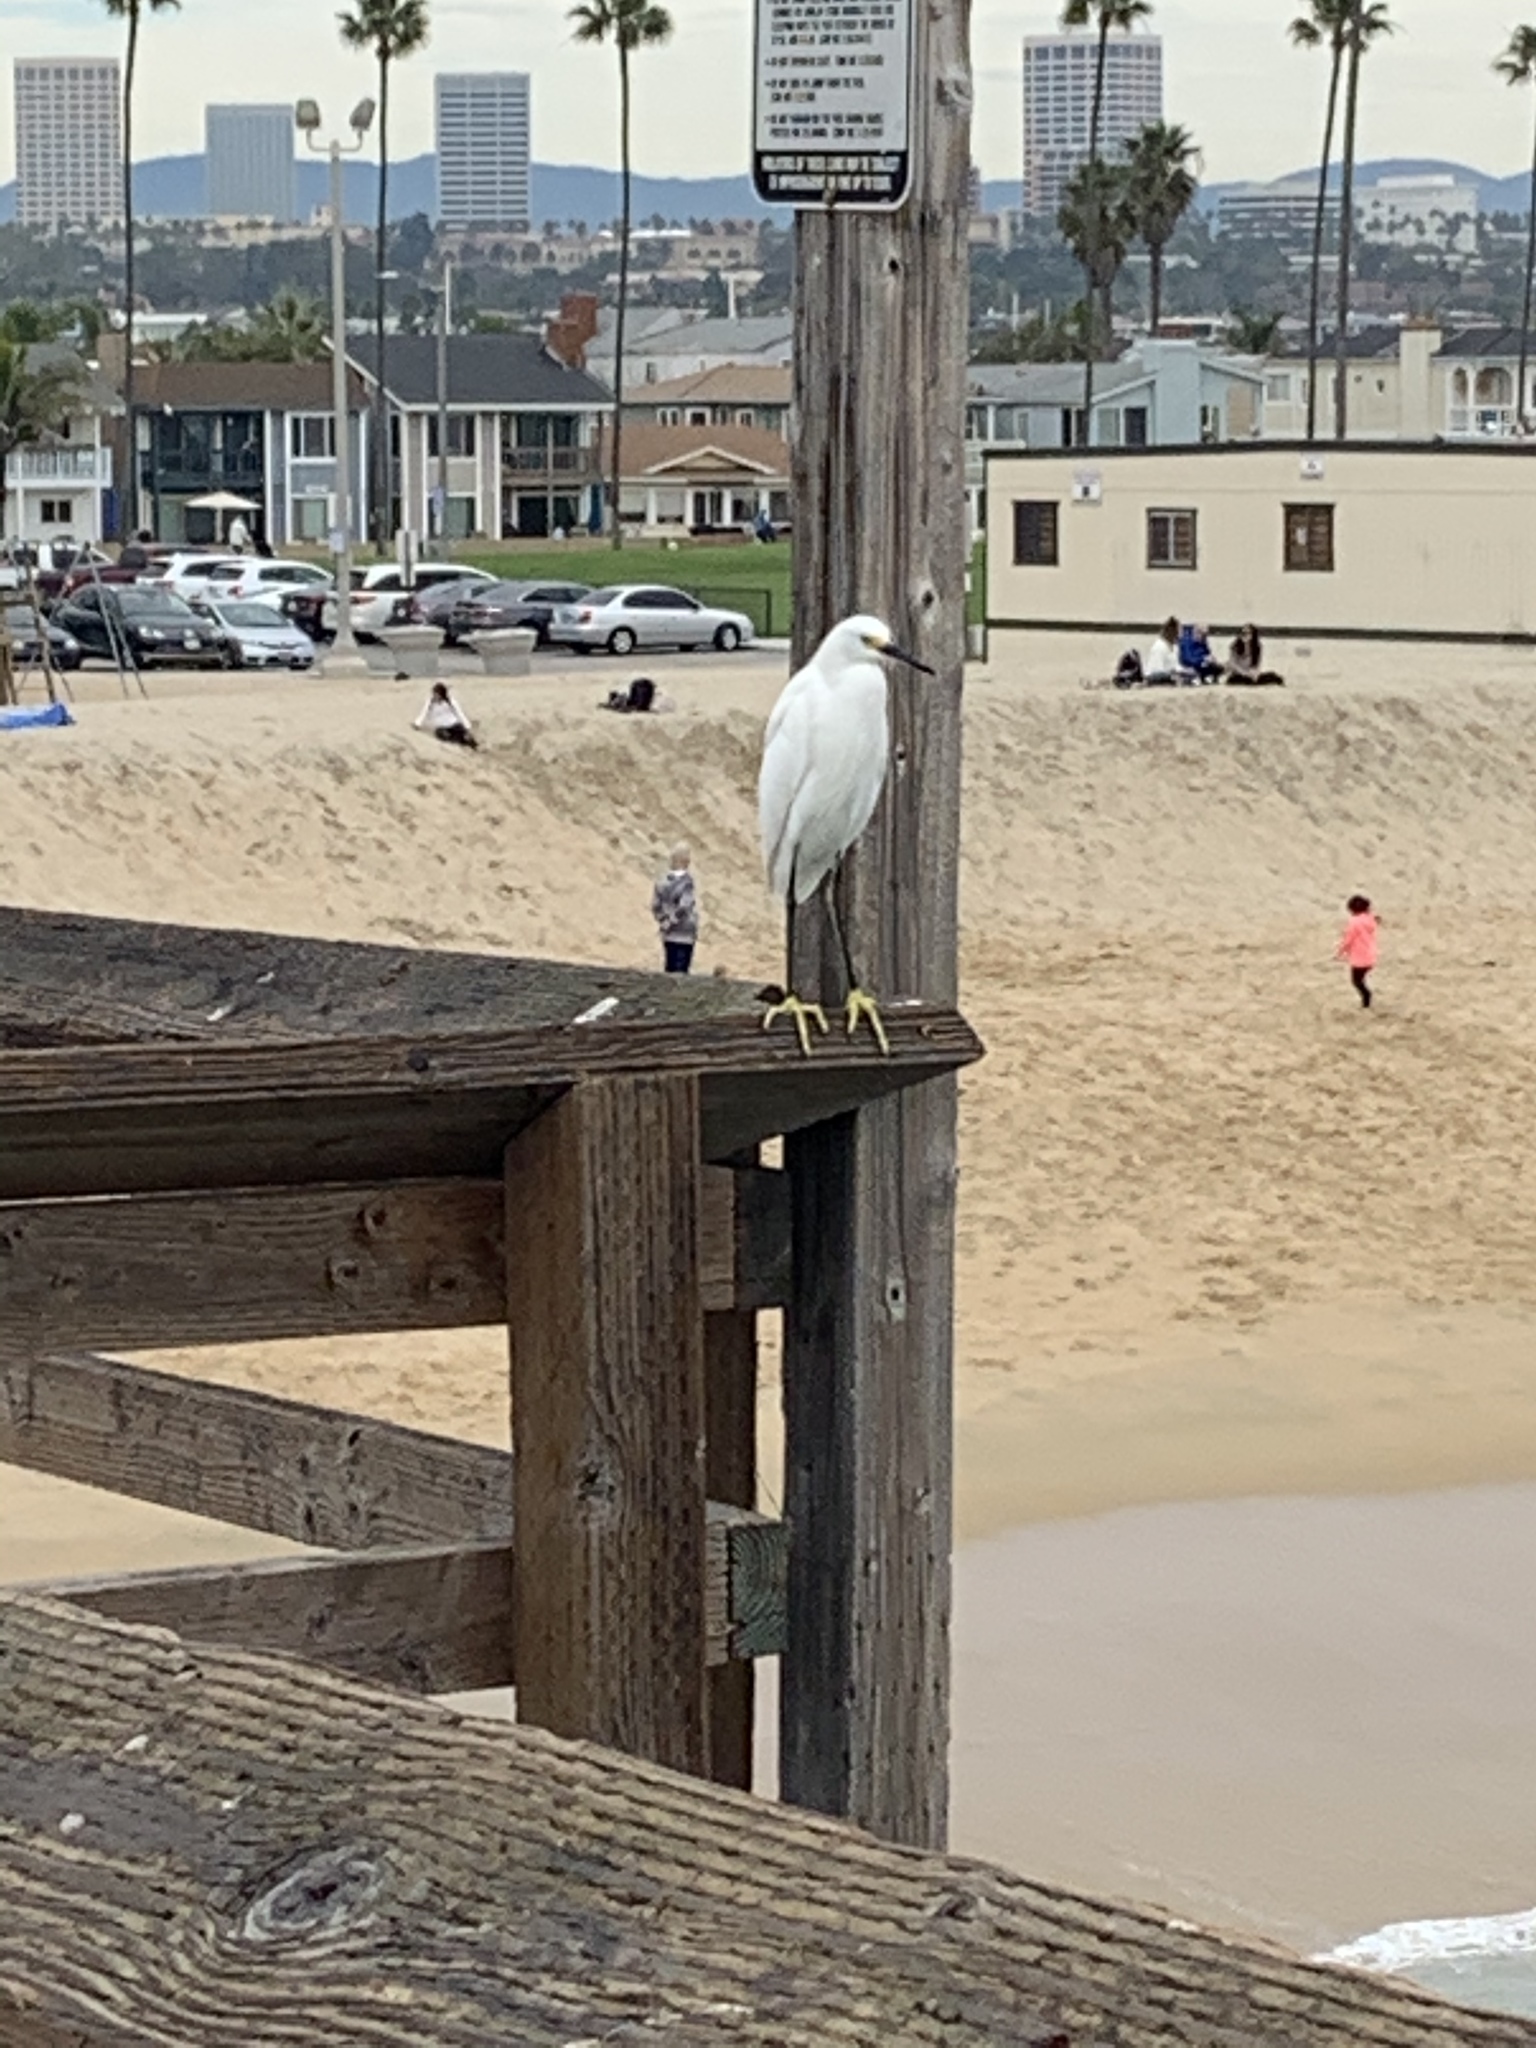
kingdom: Animalia
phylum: Chordata
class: Aves
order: Pelecaniformes
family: Ardeidae
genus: Egretta
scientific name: Egretta thula
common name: Snowy egret
